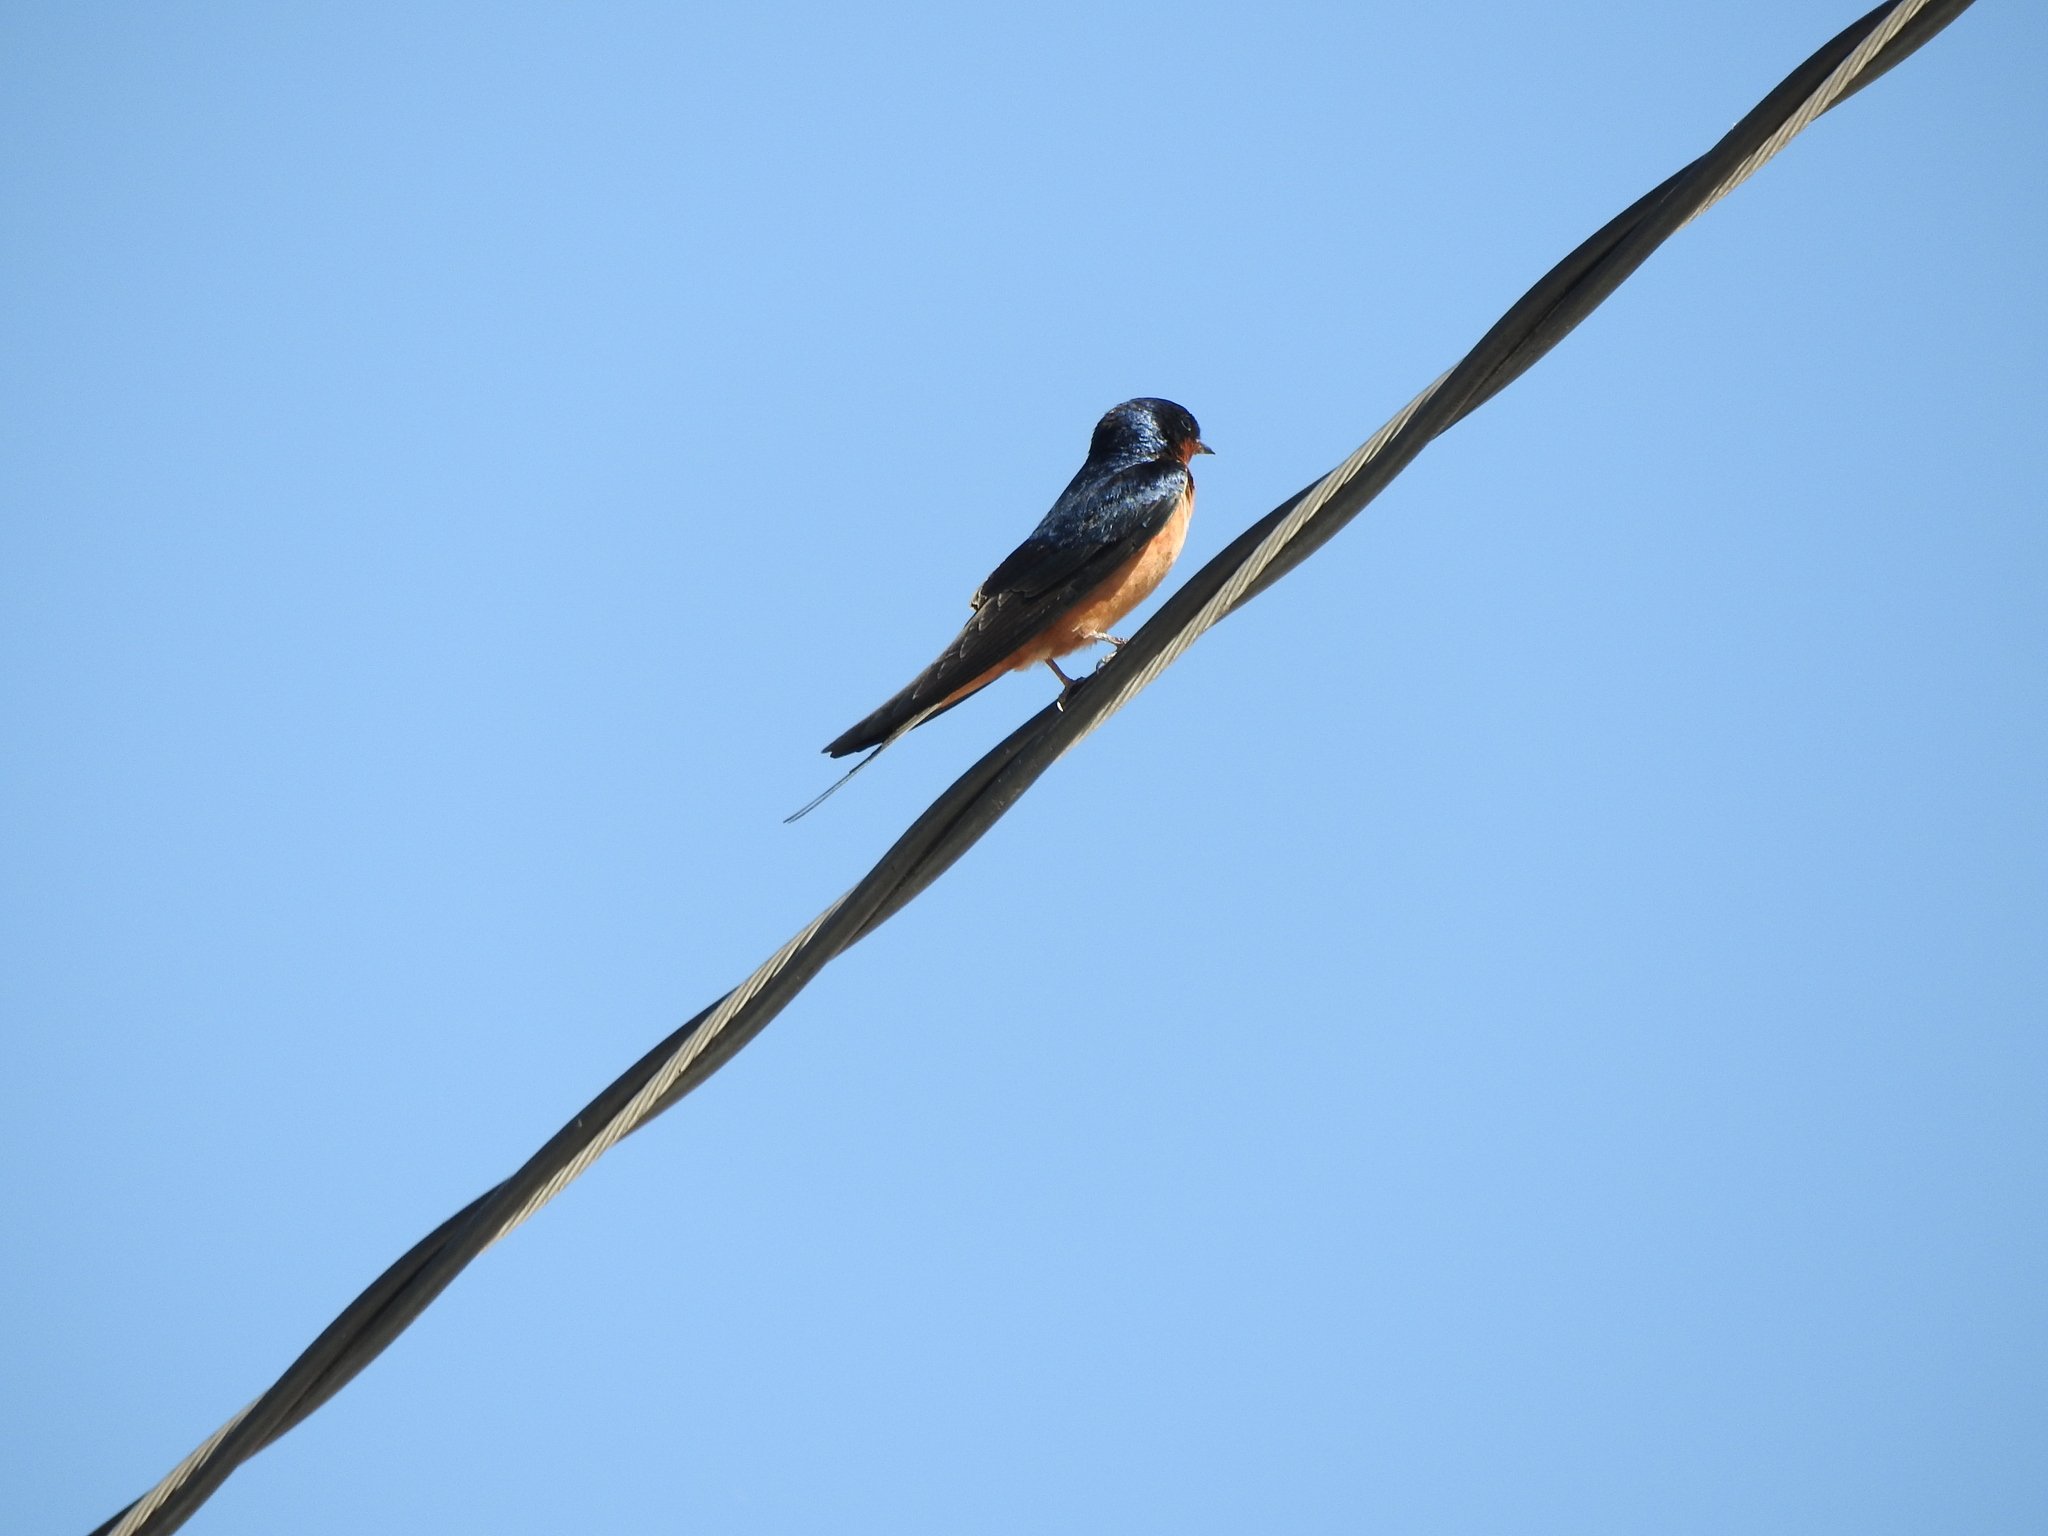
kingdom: Animalia
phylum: Chordata
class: Aves
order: Passeriformes
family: Hirundinidae
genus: Hirundo
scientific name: Hirundo rustica
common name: Barn swallow
